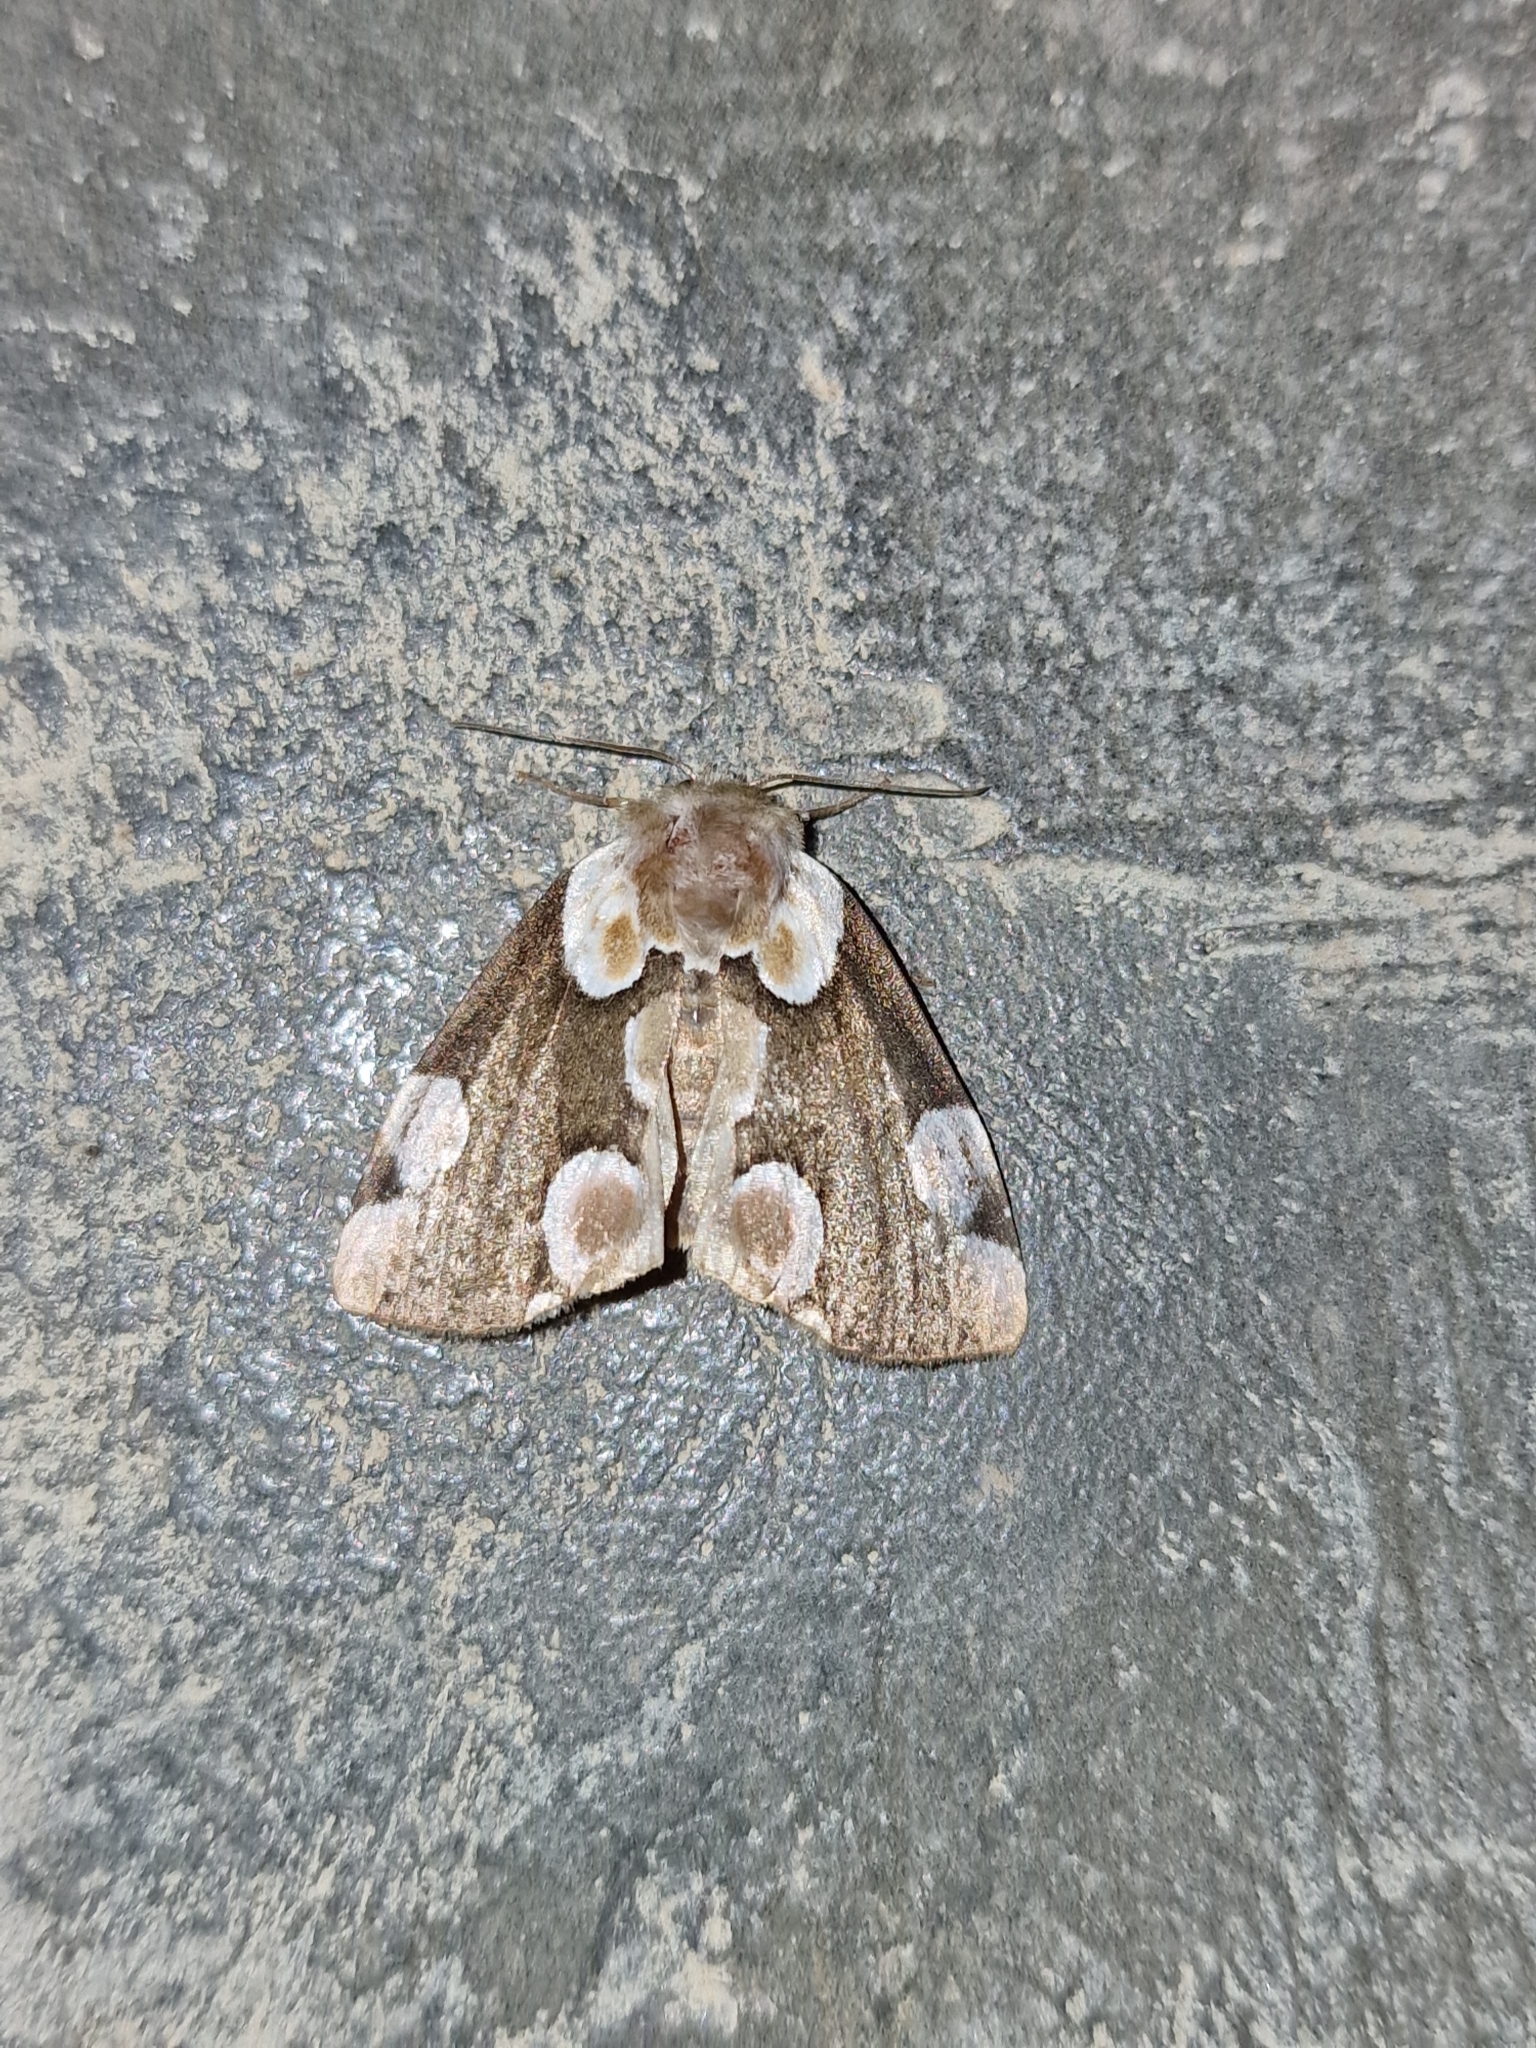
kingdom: Animalia
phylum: Arthropoda
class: Insecta
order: Lepidoptera
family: Drepanidae
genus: Thyatira
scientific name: Thyatira batis
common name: Peach blossom
